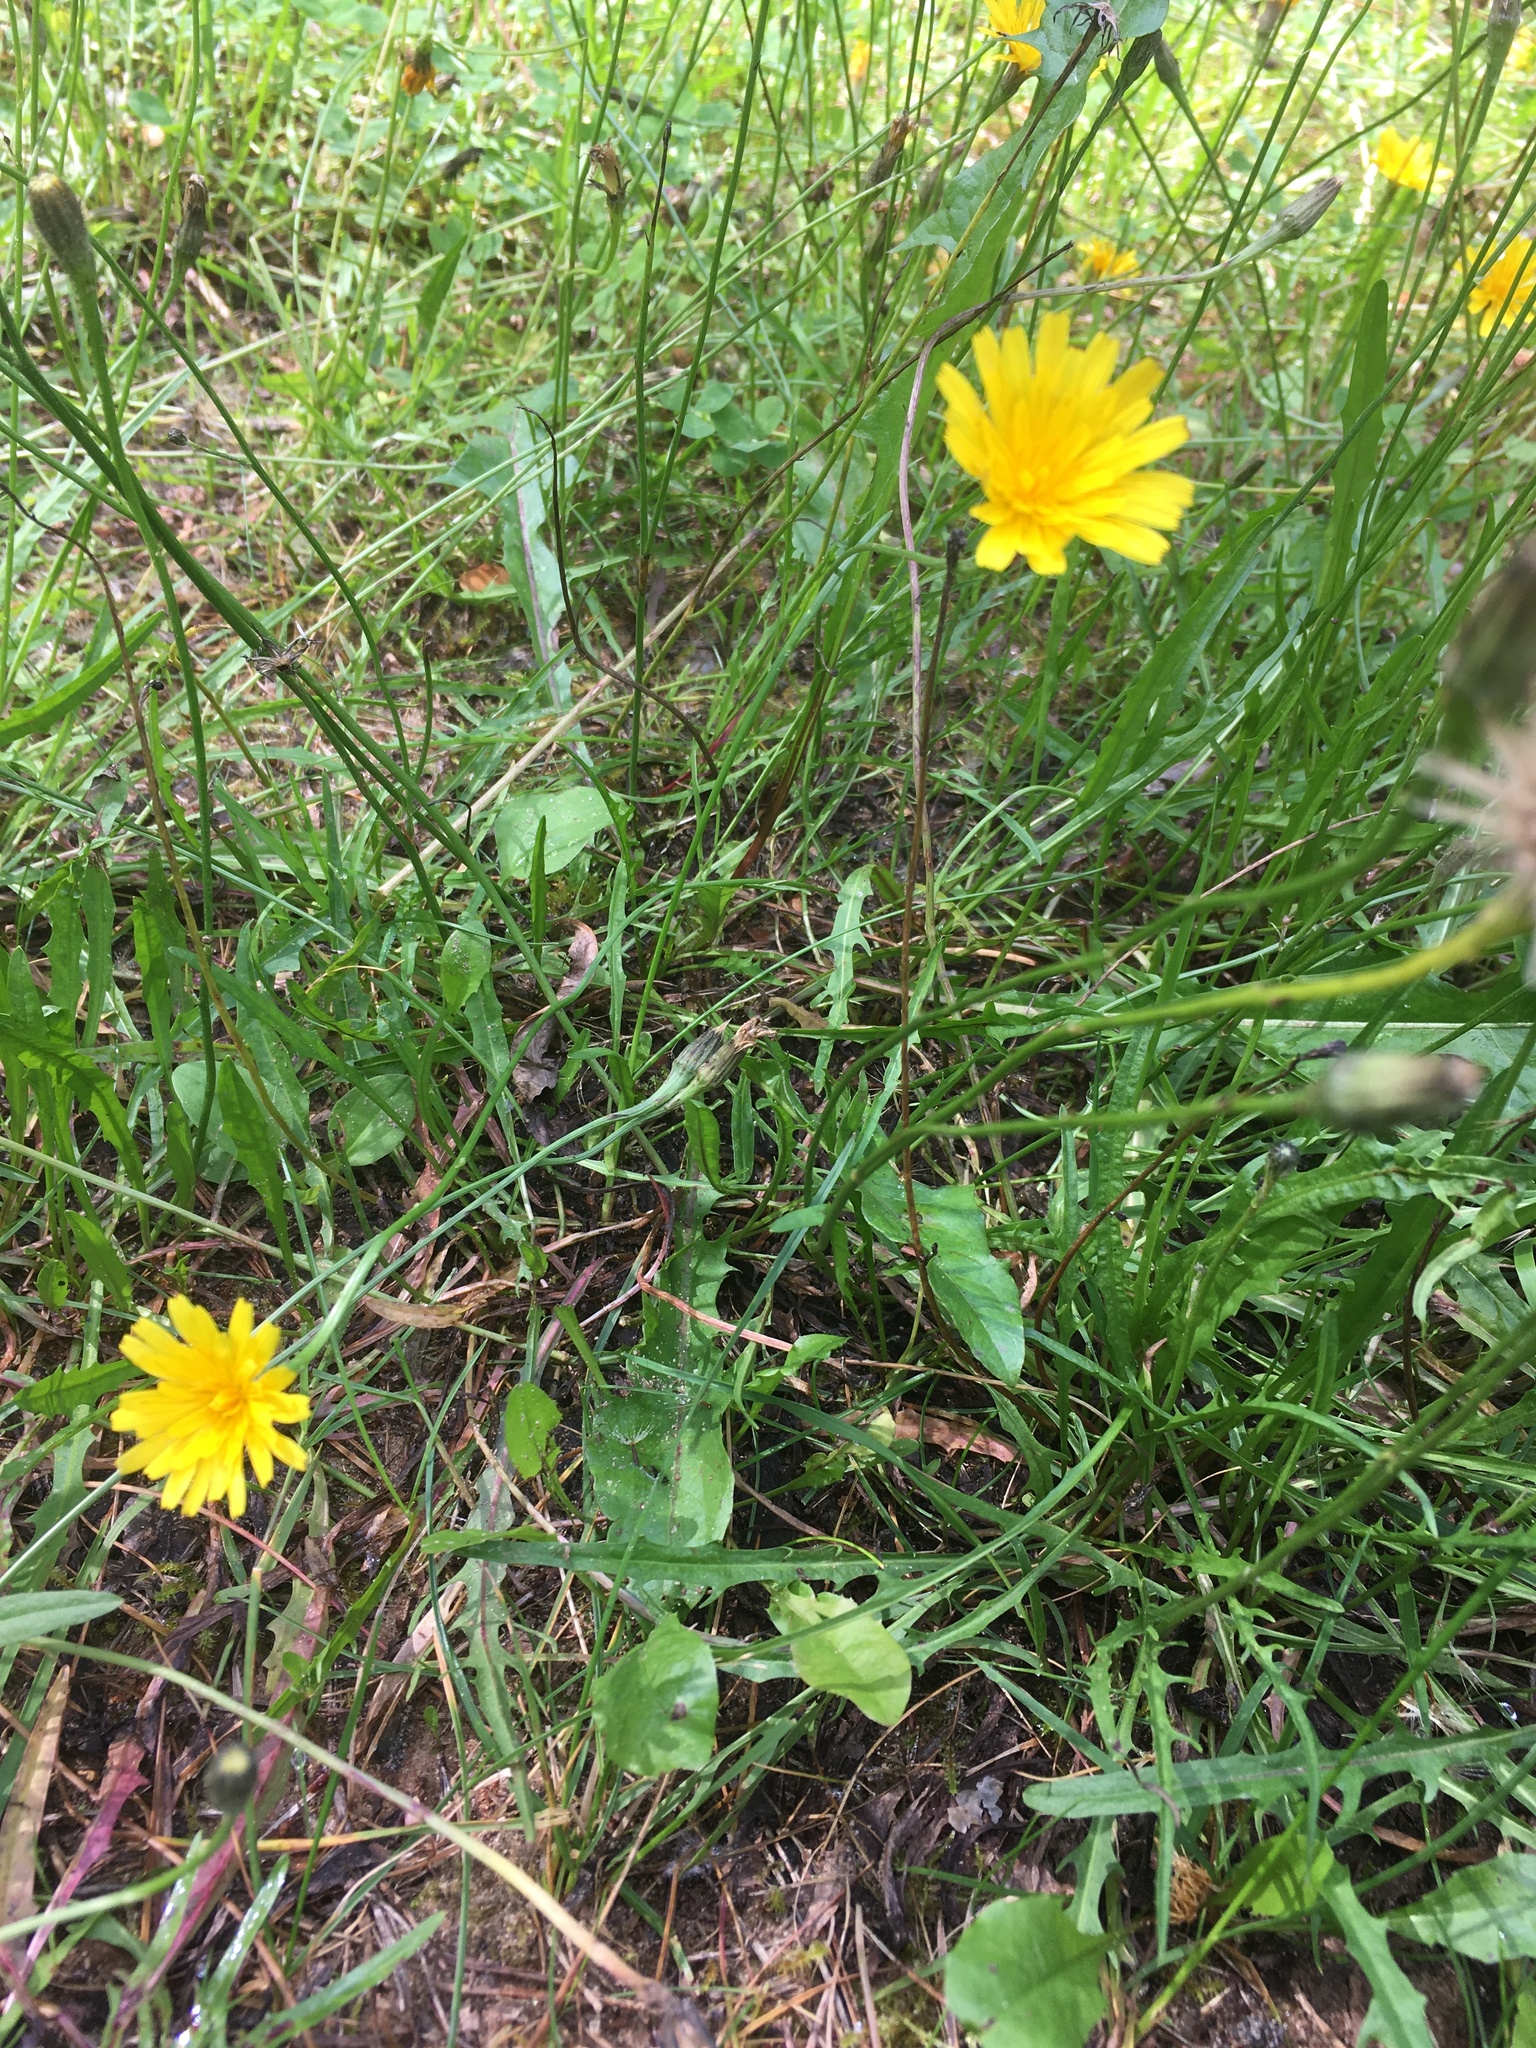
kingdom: Plantae
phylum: Tracheophyta
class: Magnoliopsida
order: Asterales
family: Asteraceae
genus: Scorzoneroides
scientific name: Scorzoneroides autumnalis
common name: Autumn hawkbit
